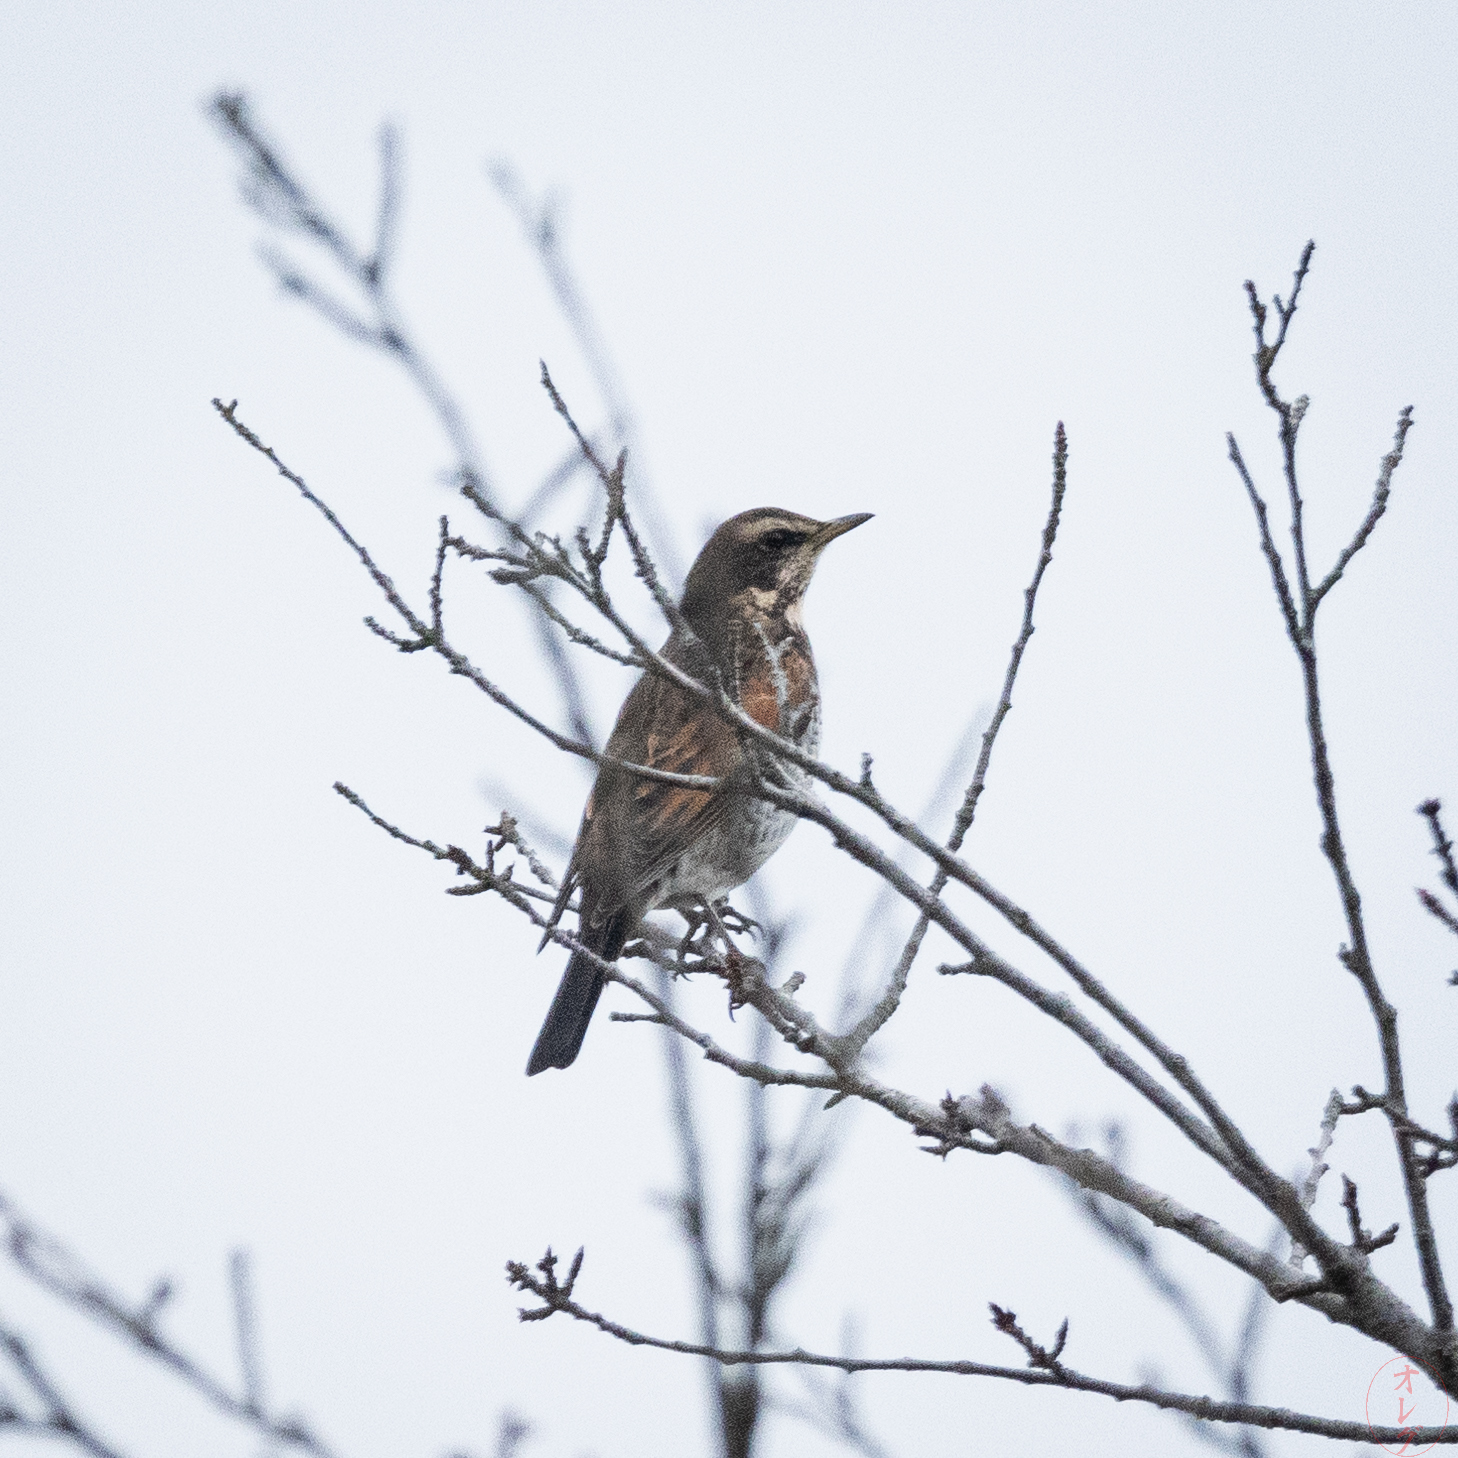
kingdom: Animalia
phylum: Chordata
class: Aves
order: Passeriformes
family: Turdidae
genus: Turdus
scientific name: Turdus eunomus
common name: Dusky thrush
